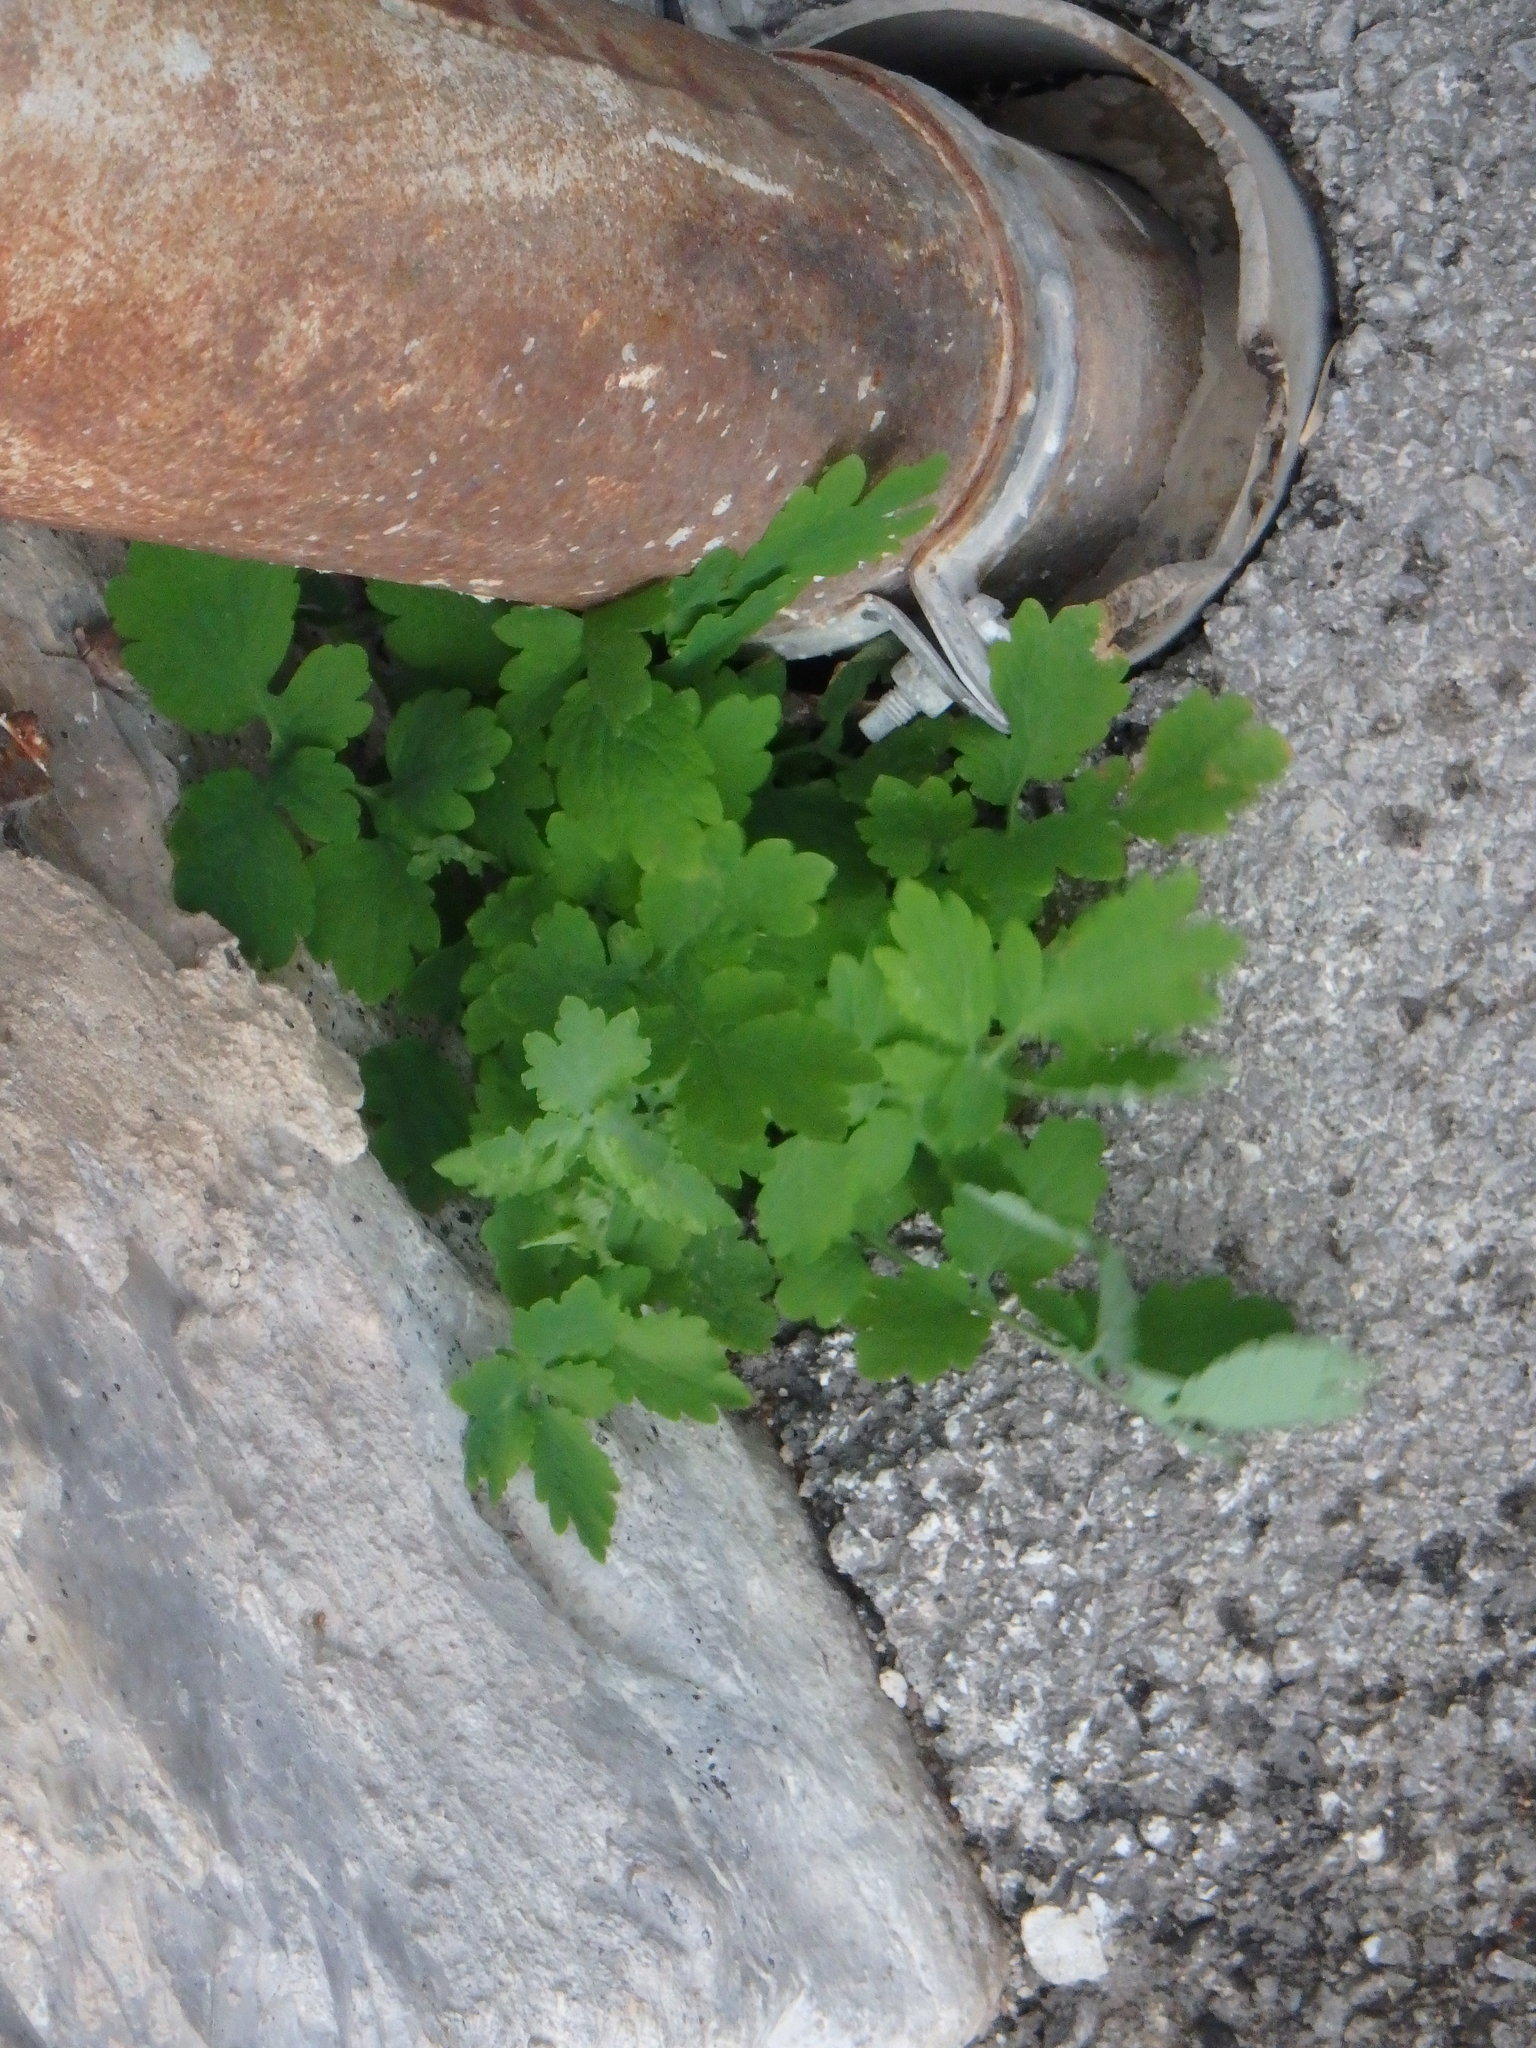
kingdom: Plantae
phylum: Tracheophyta
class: Magnoliopsida
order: Ranunculales
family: Papaveraceae
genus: Chelidonium
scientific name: Chelidonium majus
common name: Greater celandine
